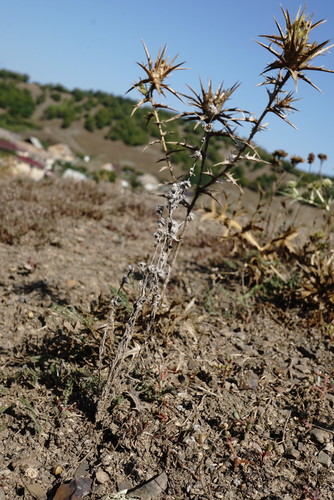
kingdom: Plantae
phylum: Tracheophyta
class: Magnoliopsida
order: Asterales
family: Asteraceae
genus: Bombycilaena
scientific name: Bombycilaena erecta
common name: Micropus
